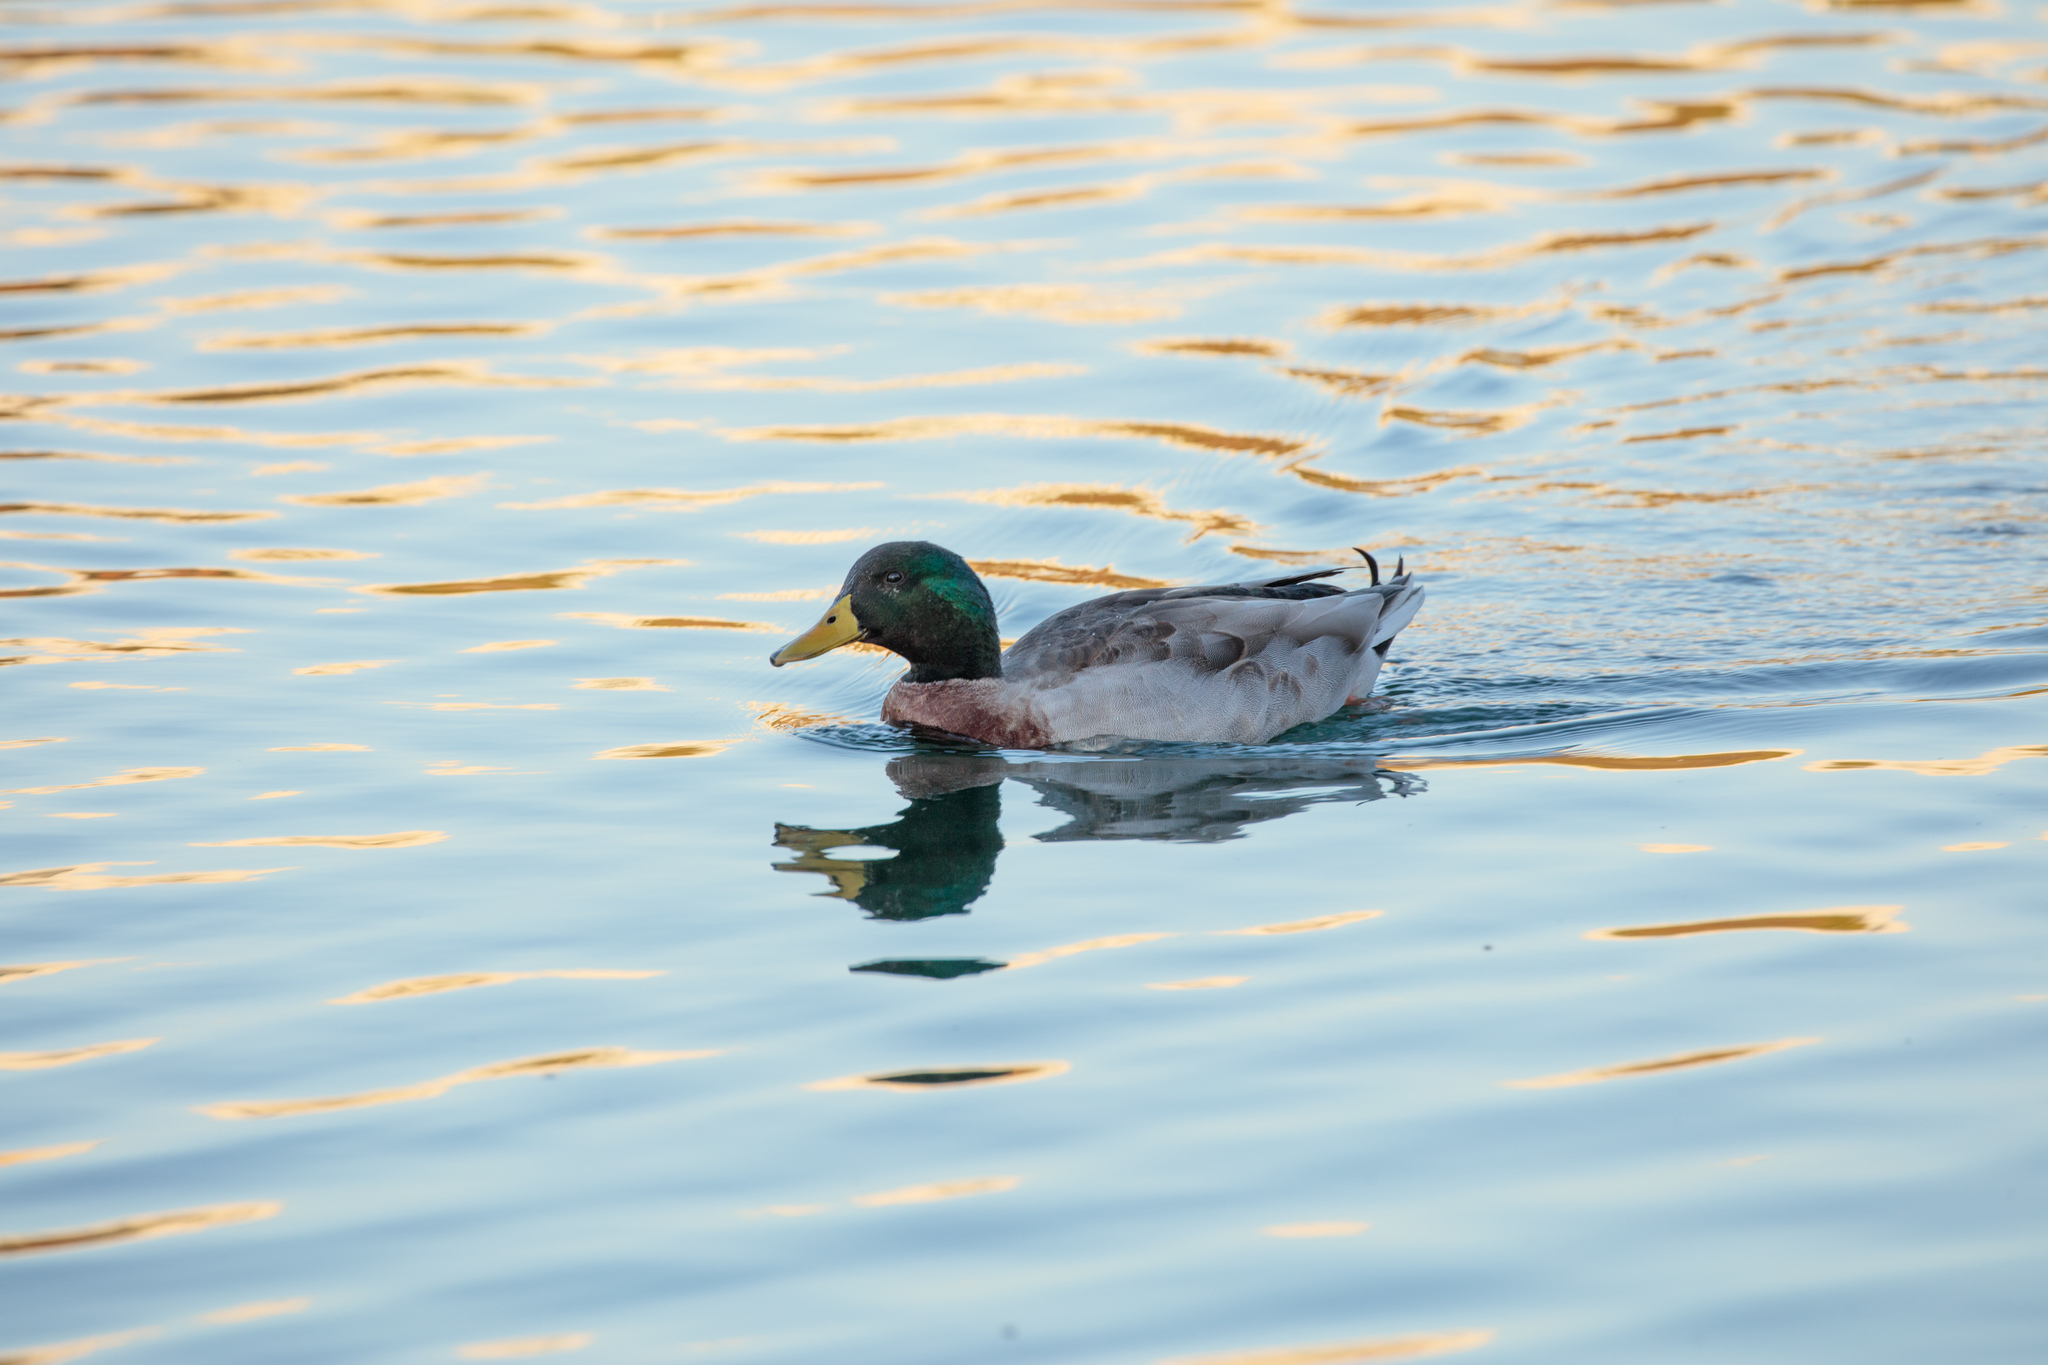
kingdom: Animalia
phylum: Chordata
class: Aves
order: Anseriformes
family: Anatidae
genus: Anas
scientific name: Anas platyrhynchos
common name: Mallard
